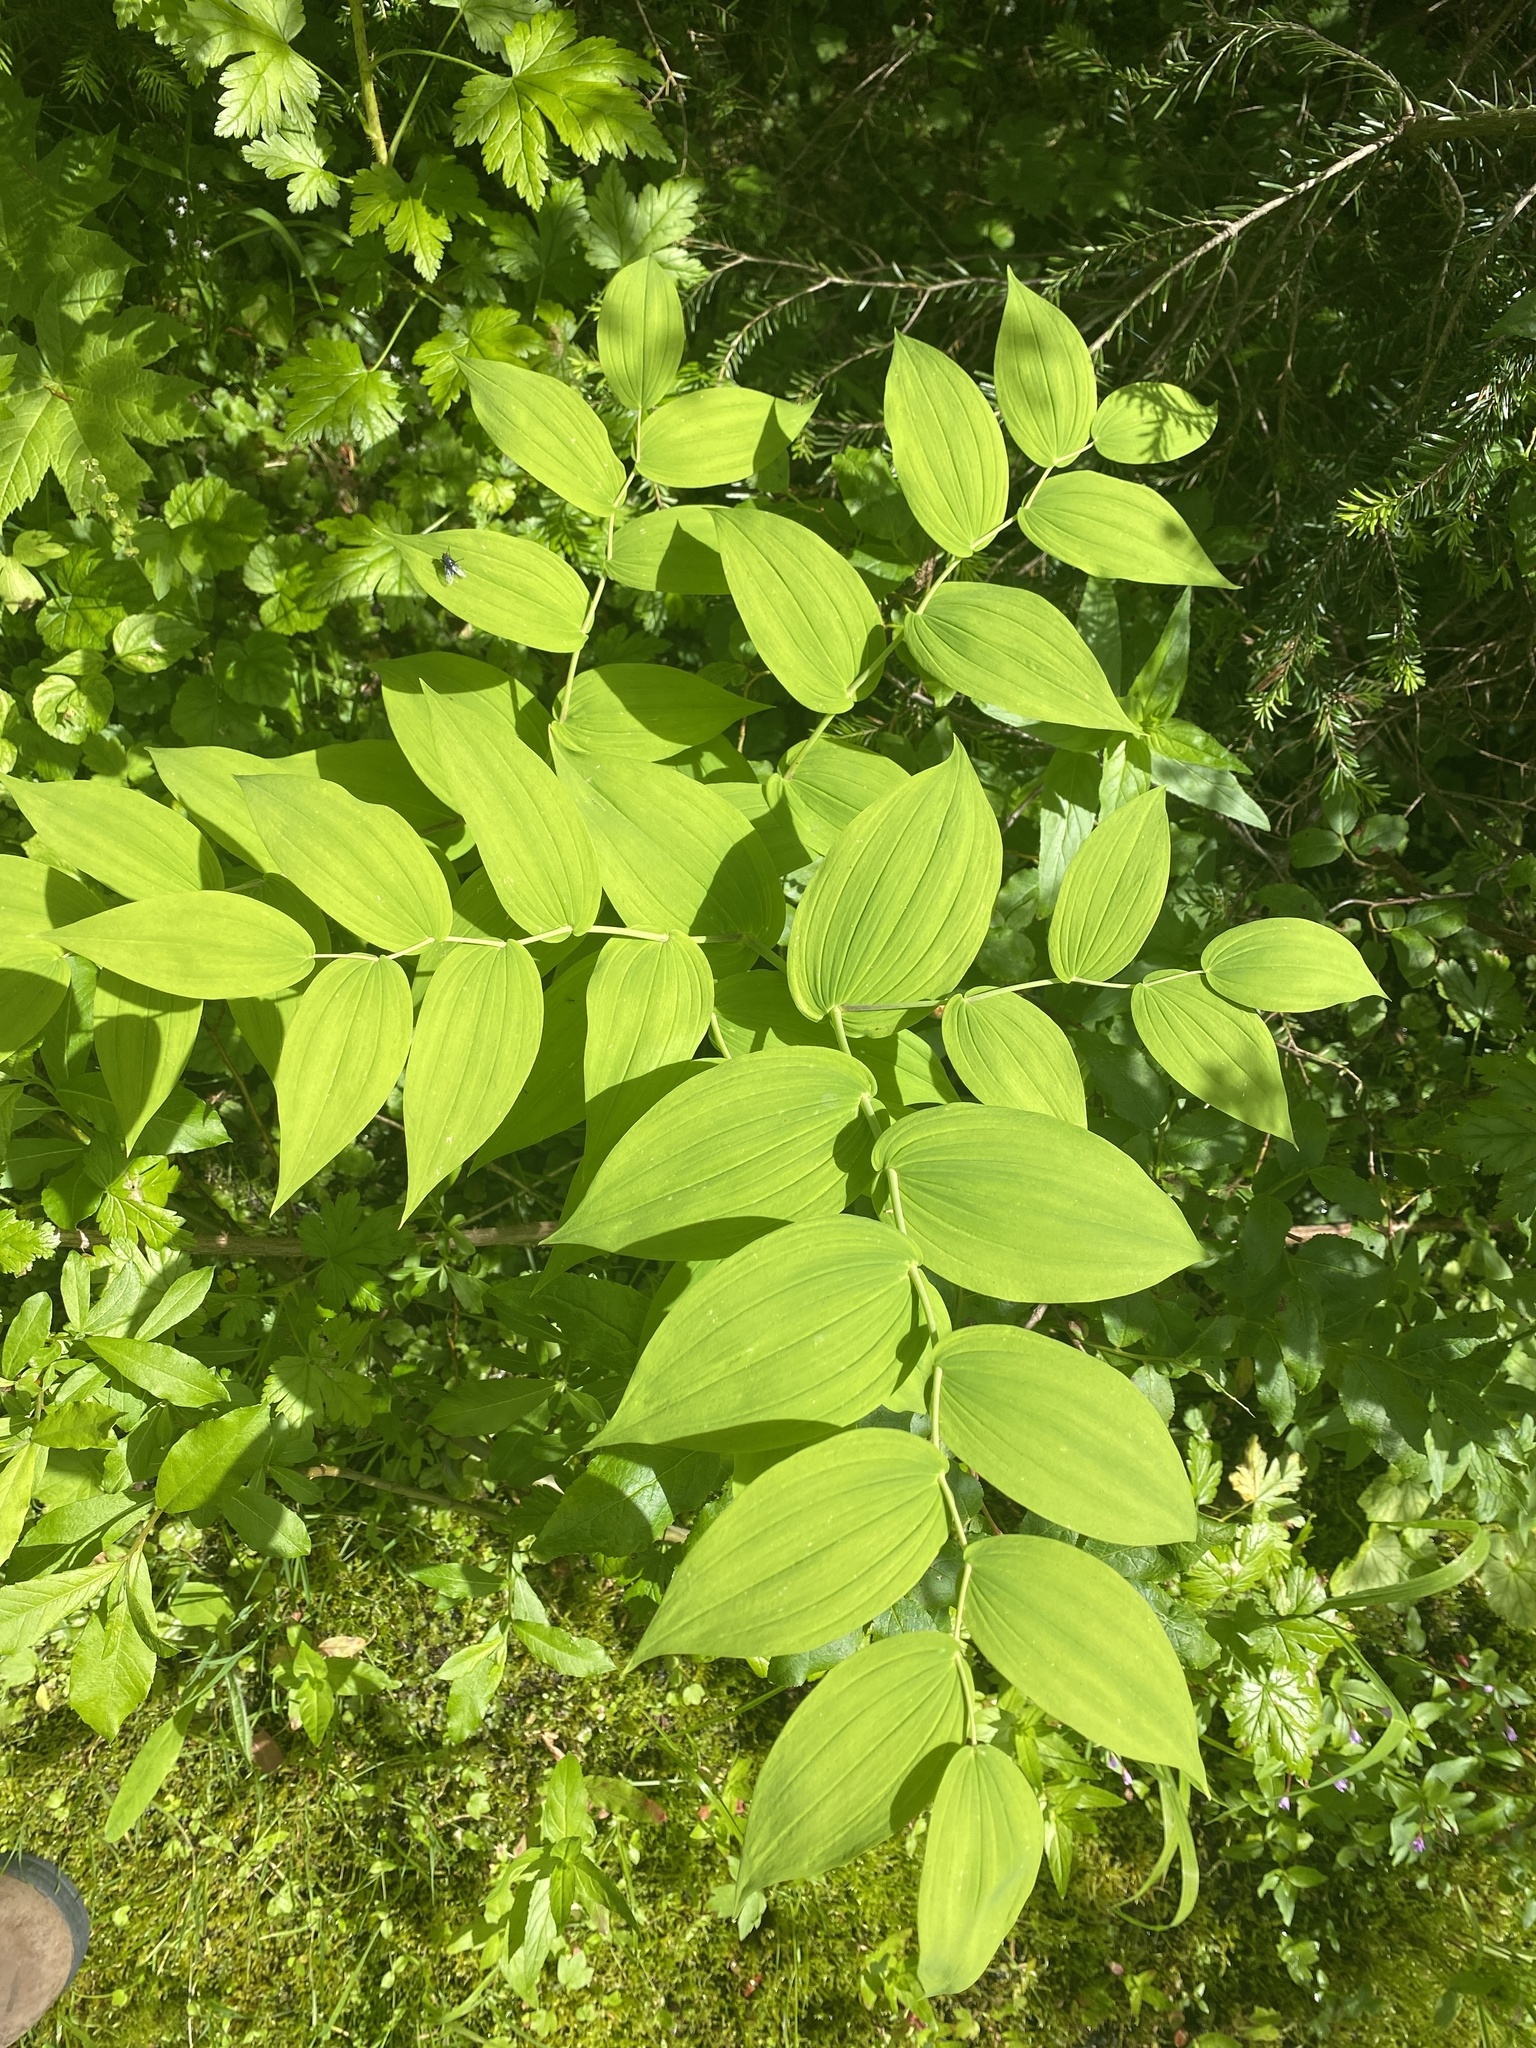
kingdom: Plantae
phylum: Tracheophyta
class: Liliopsida
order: Liliales
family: Liliaceae
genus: Streptopus
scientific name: Streptopus amplexifolius
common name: Clasp twisted stalk
